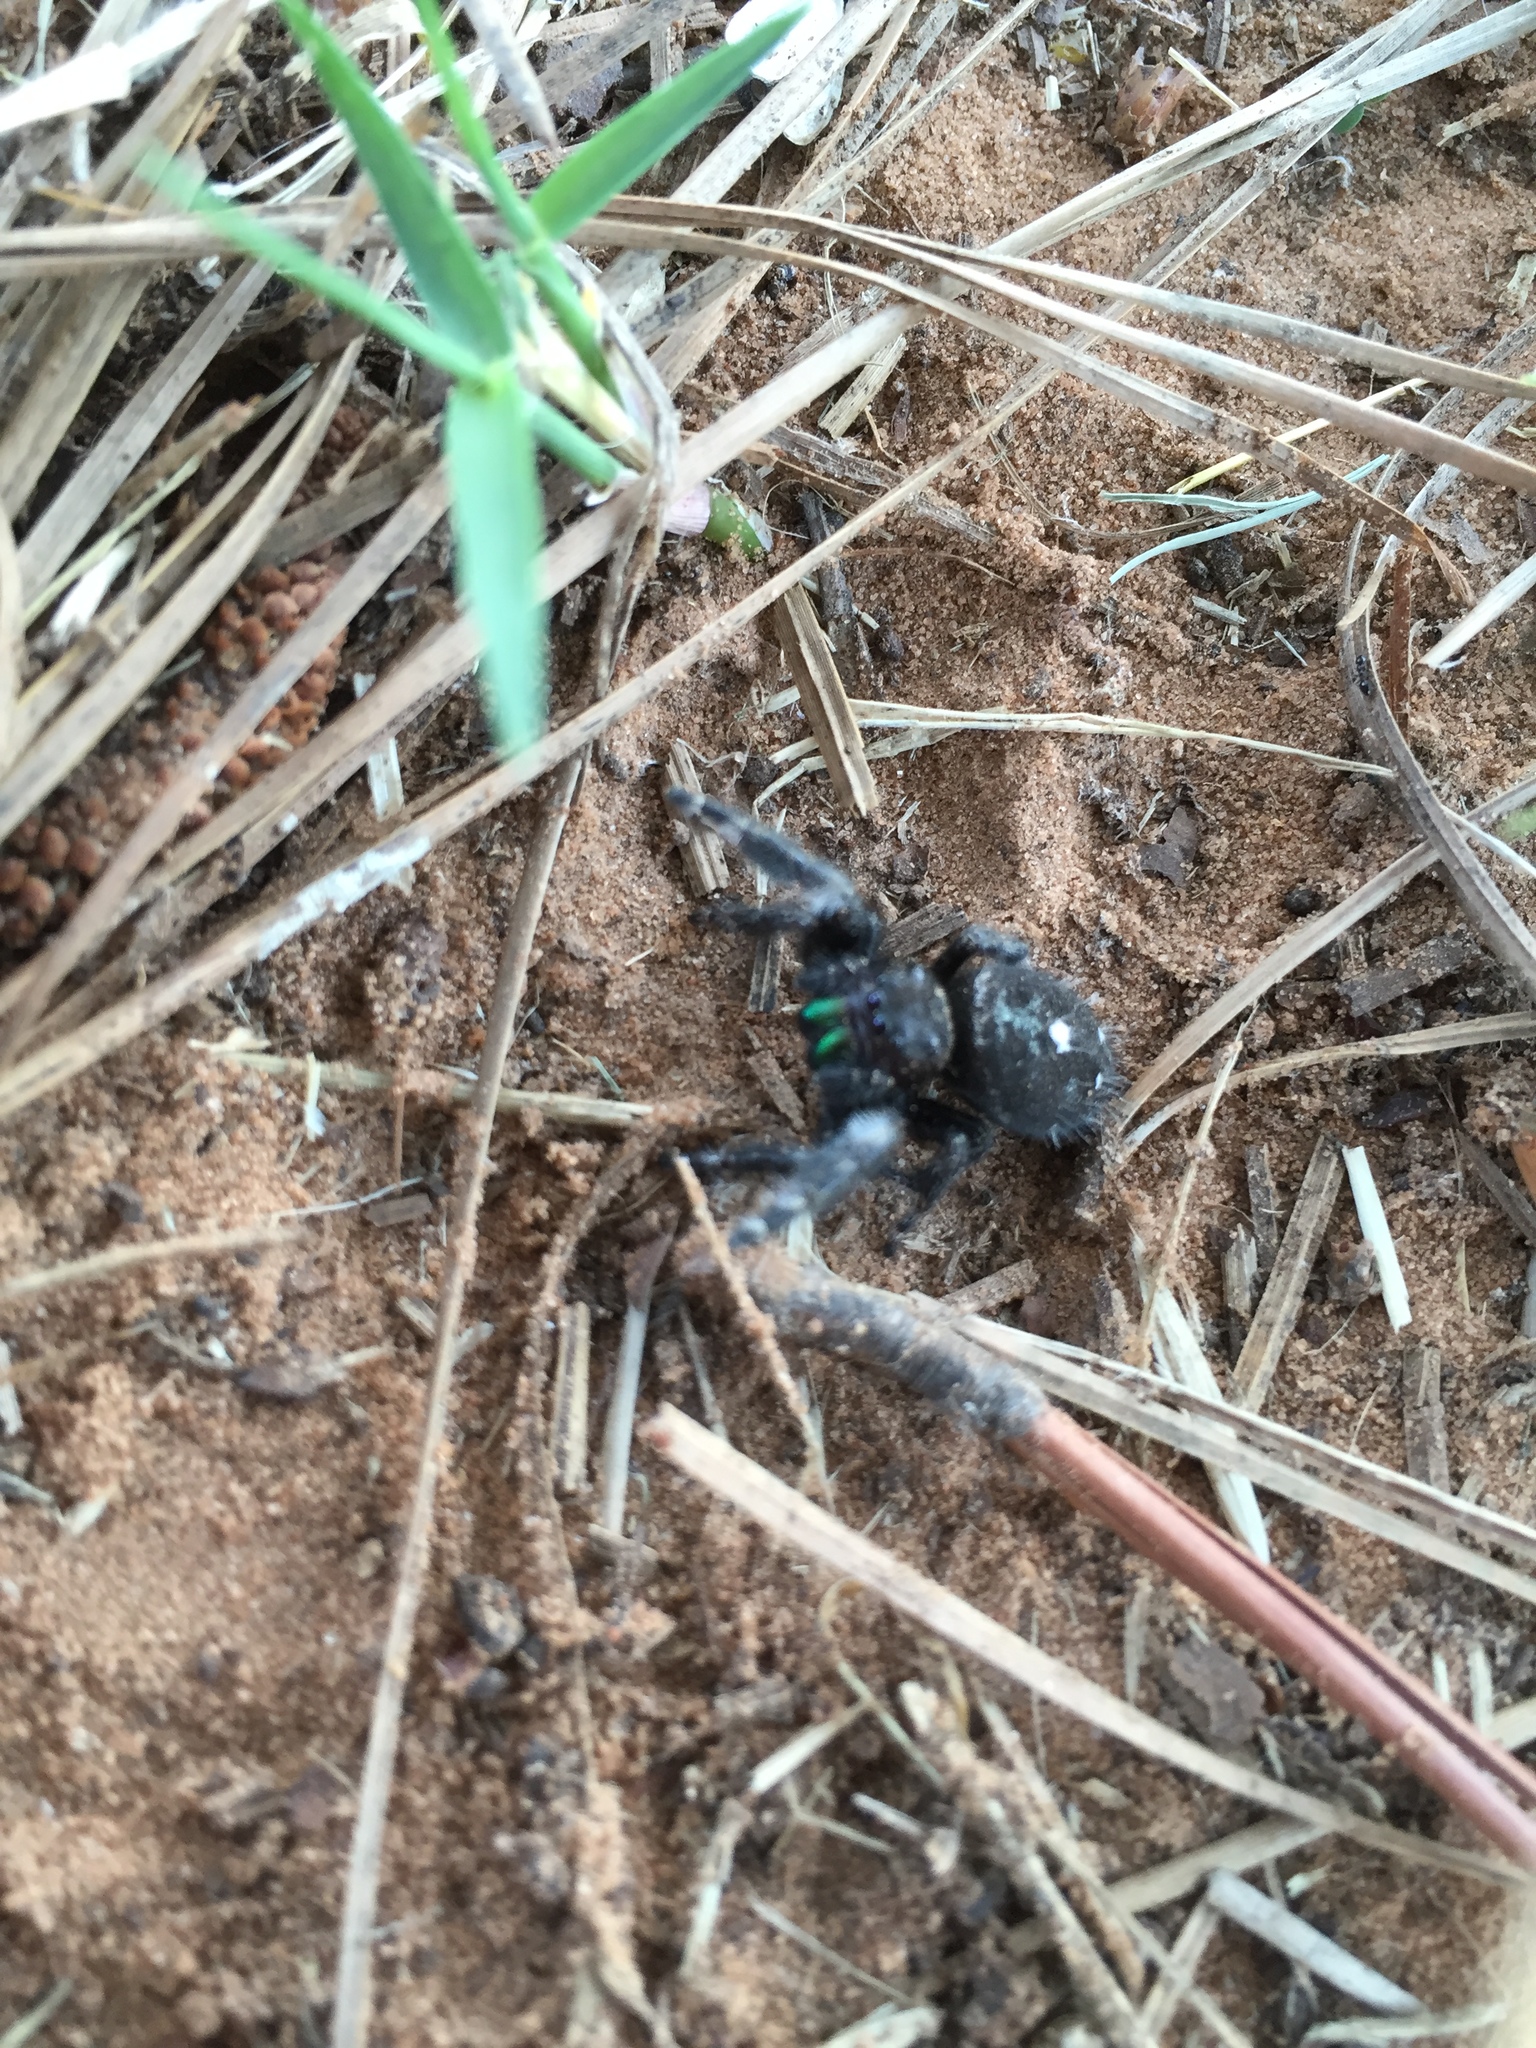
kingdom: Animalia
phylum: Arthropoda
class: Arachnida
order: Araneae
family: Salticidae
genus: Phidippus
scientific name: Phidippus audax
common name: Bold jumper
